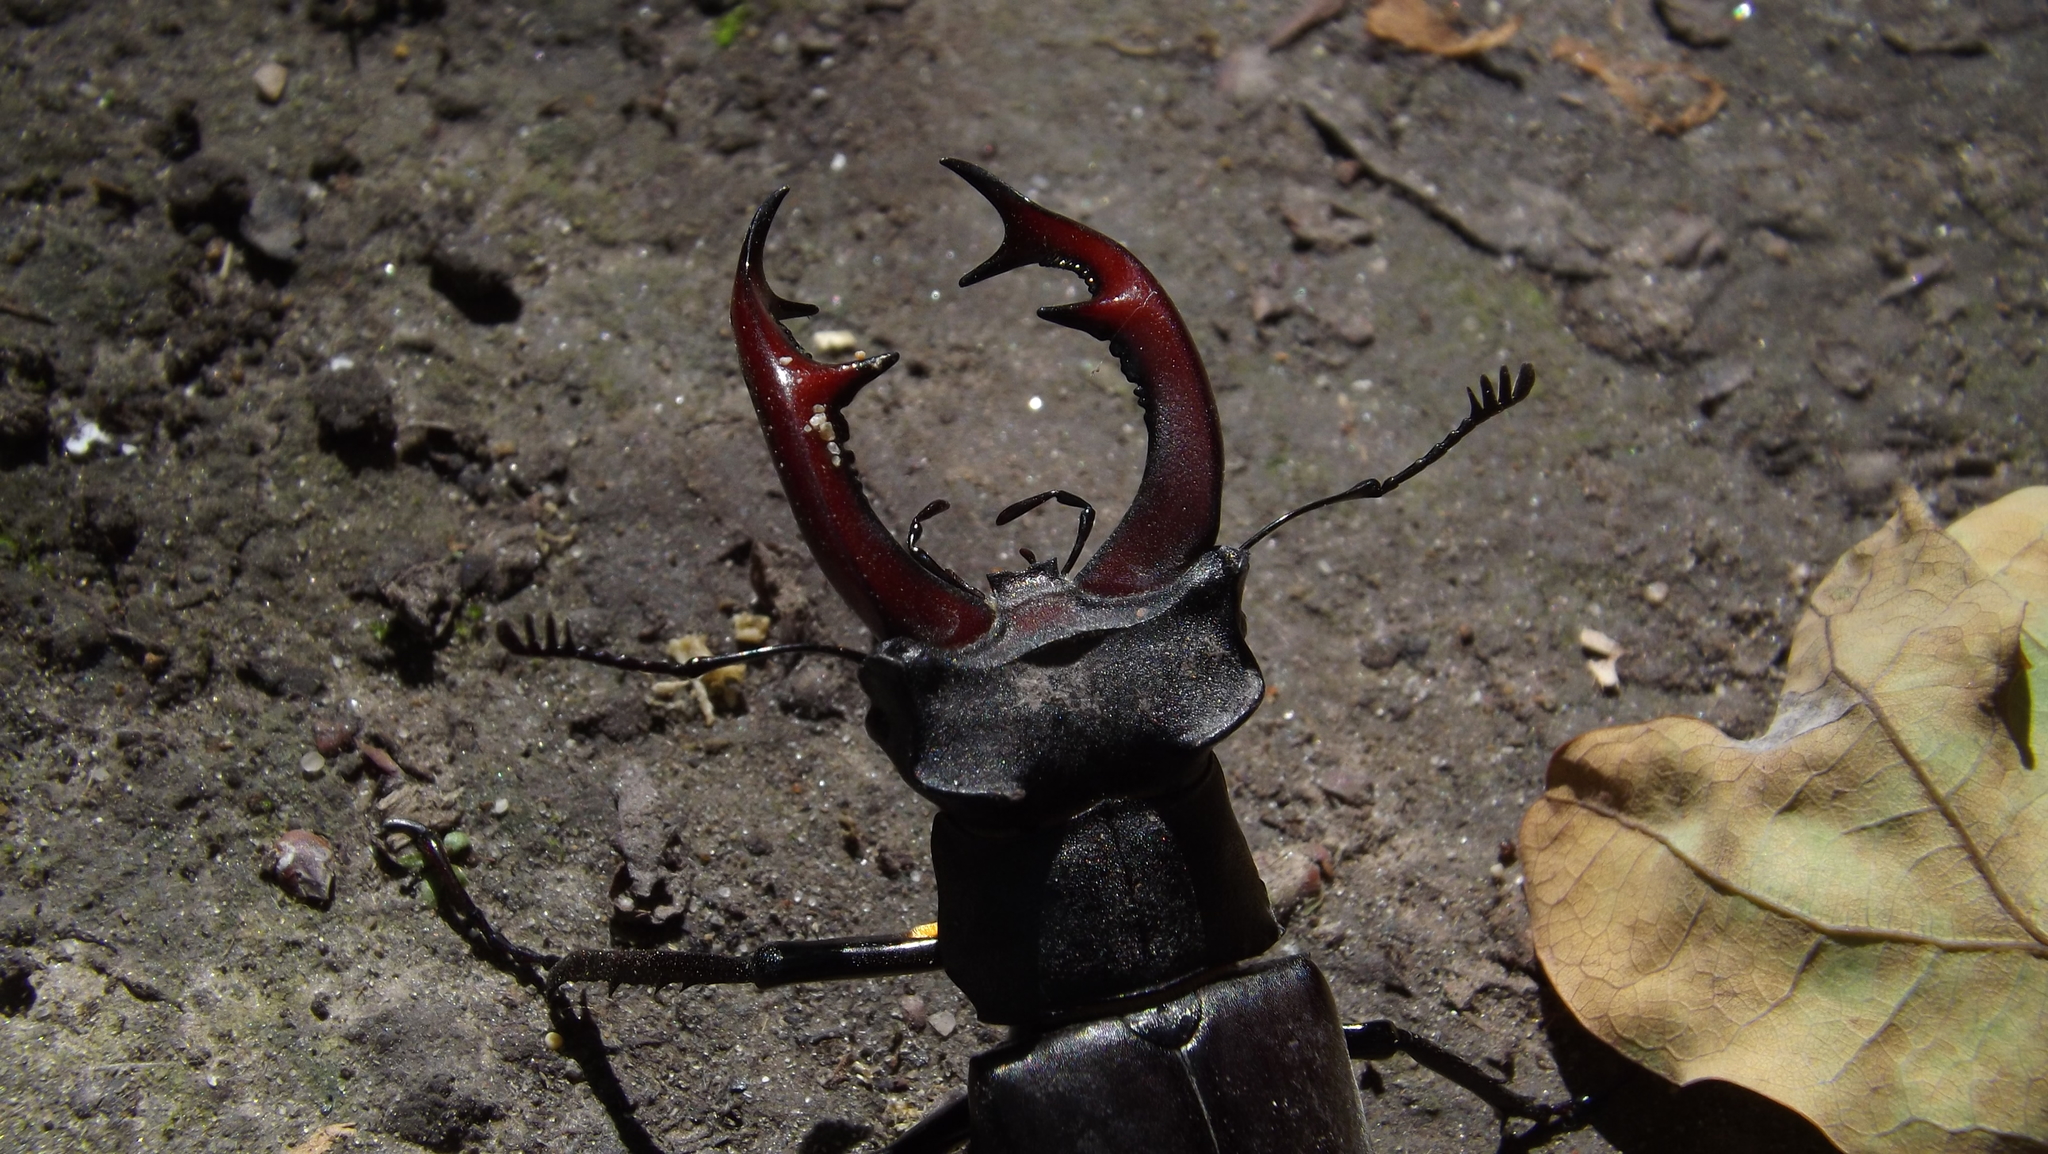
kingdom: Animalia
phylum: Arthropoda
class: Insecta
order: Coleoptera
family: Lucanidae
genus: Lucanus
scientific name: Lucanus cervus
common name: Stag beetle
